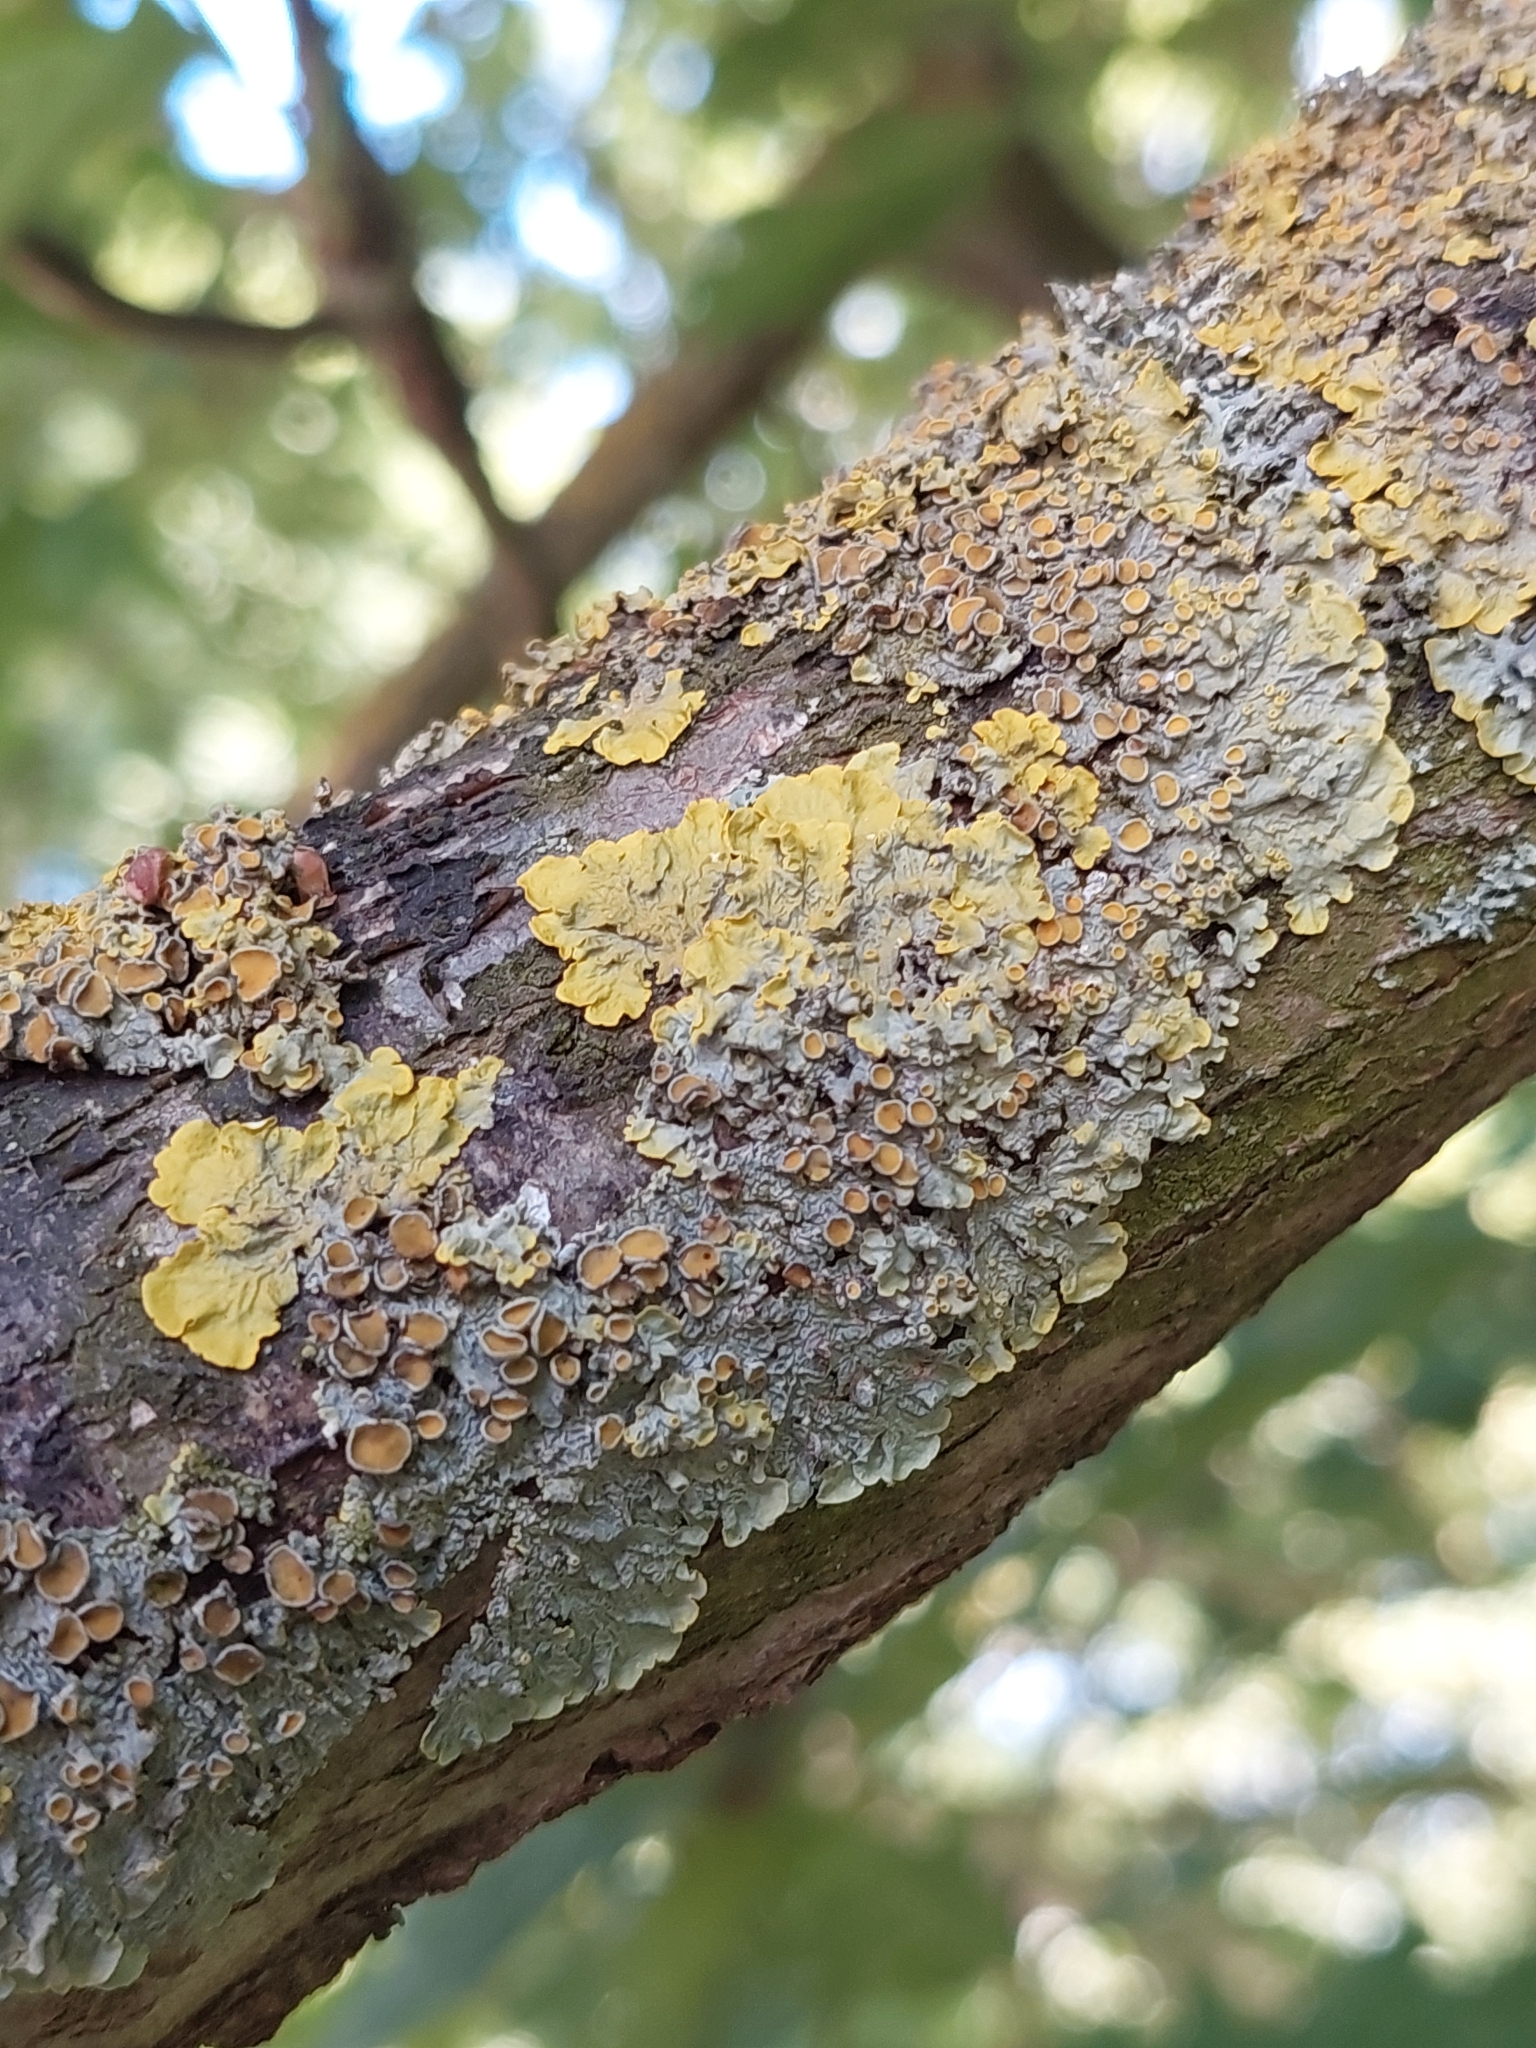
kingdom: Fungi
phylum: Ascomycota
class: Lecanoromycetes
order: Teloschistales
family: Teloschistaceae
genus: Xanthoria
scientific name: Xanthoria parietina
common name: Common orange lichen
